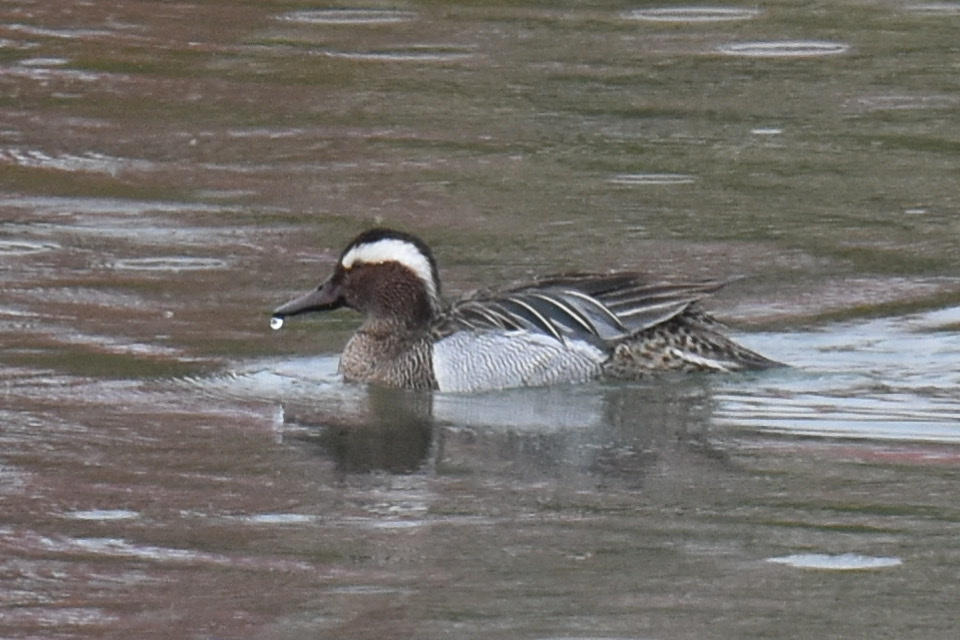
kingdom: Animalia
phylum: Chordata
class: Aves
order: Anseriformes
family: Anatidae
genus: Spatula
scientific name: Spatula querquedula
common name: Garganey
